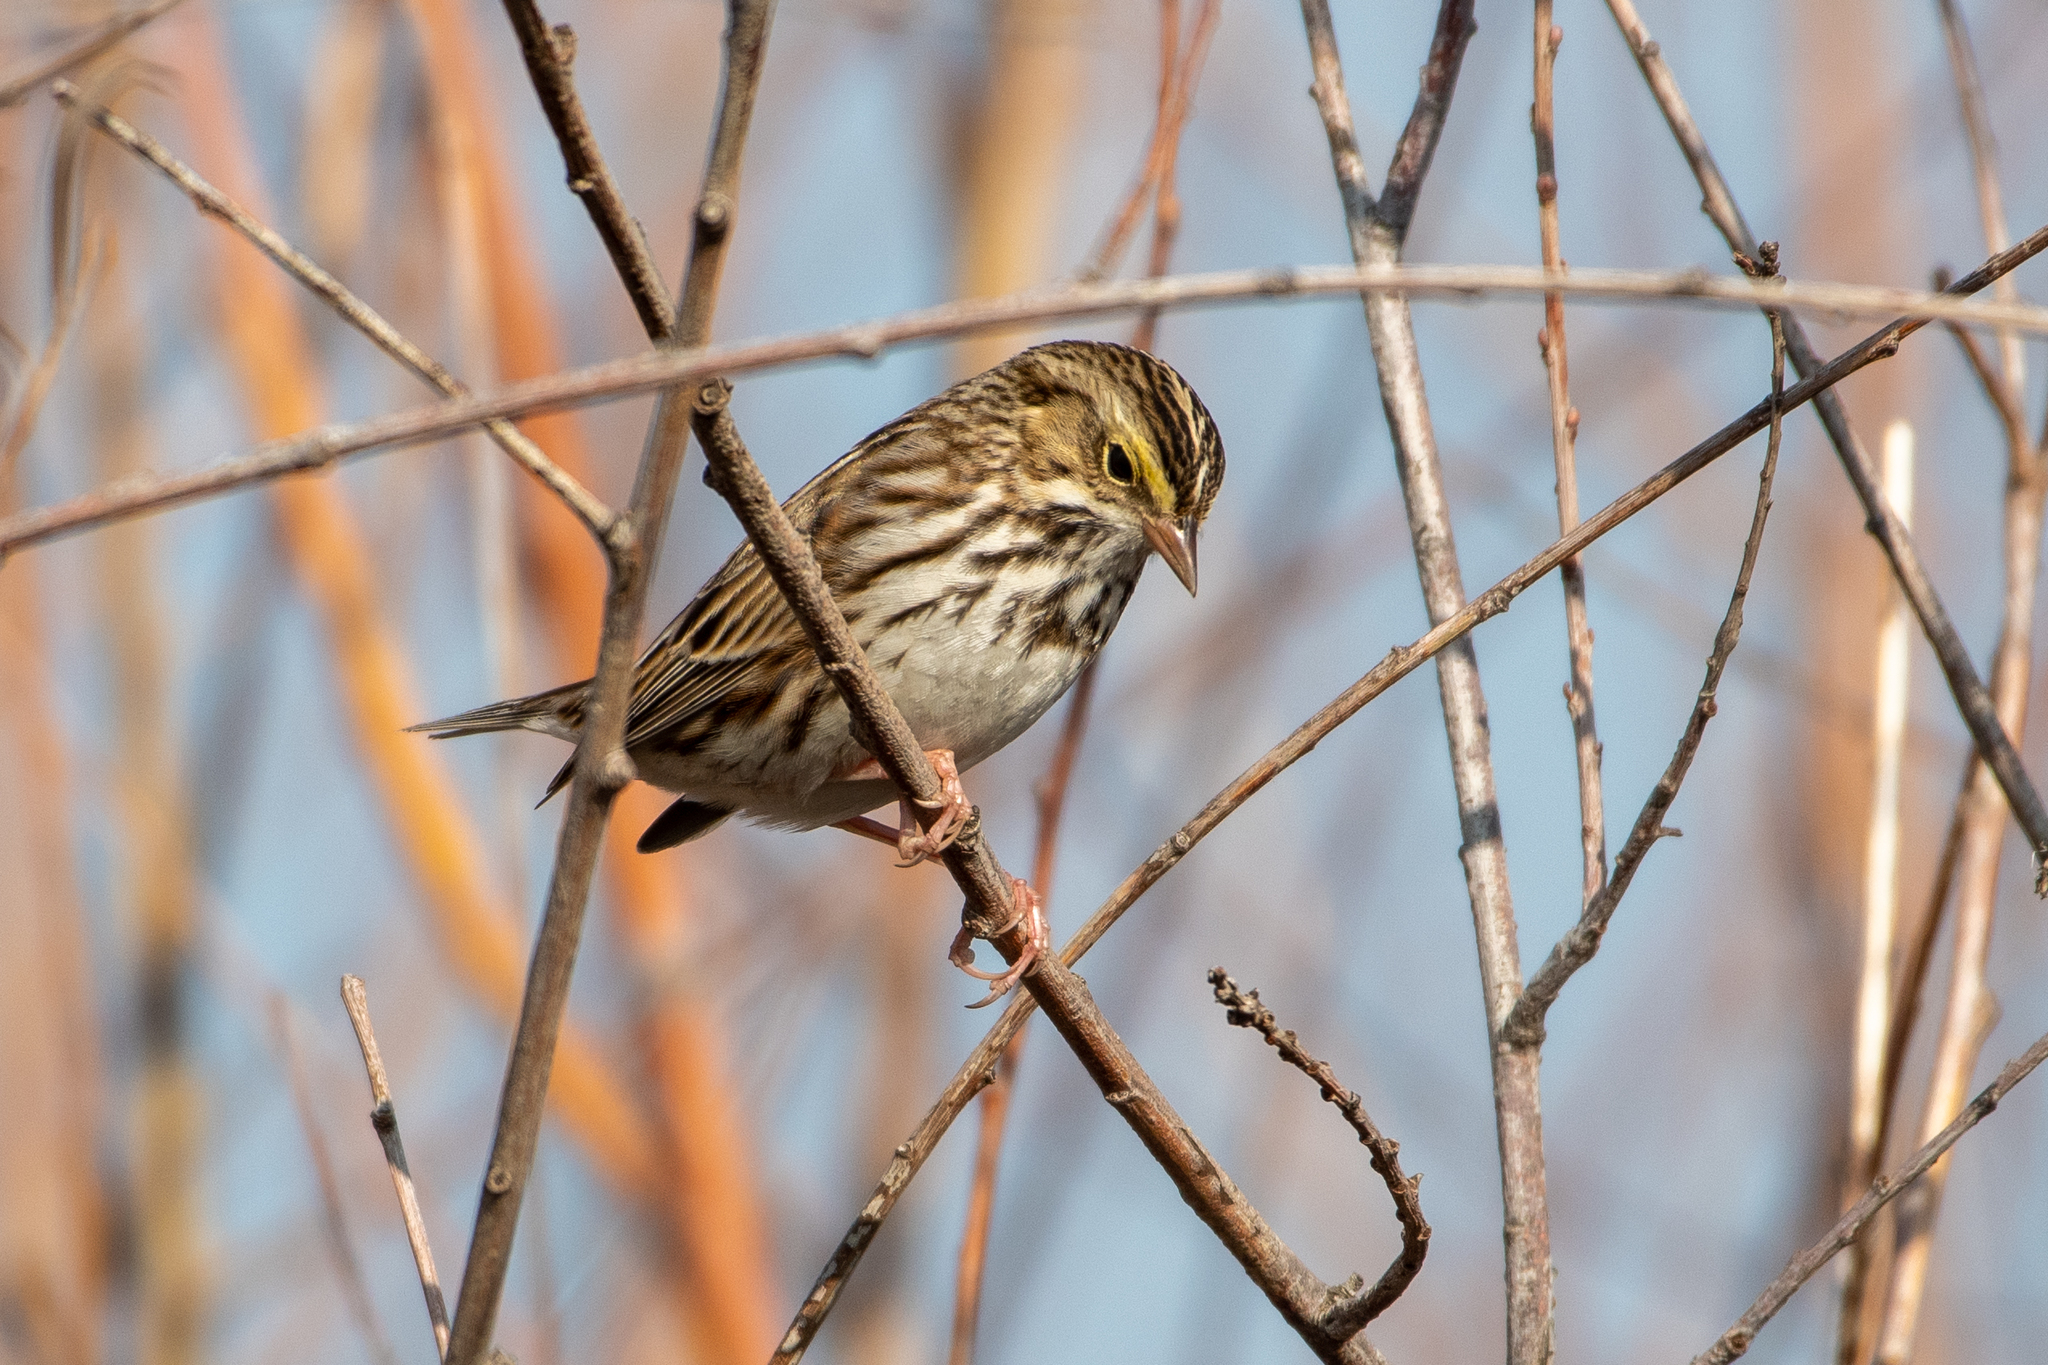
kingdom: Animalia
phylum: Chordata
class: Aves
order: Passeriformes
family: Passerellidae
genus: Passerculus
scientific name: Passerculus sandwichensis
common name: Savannah sparrow
